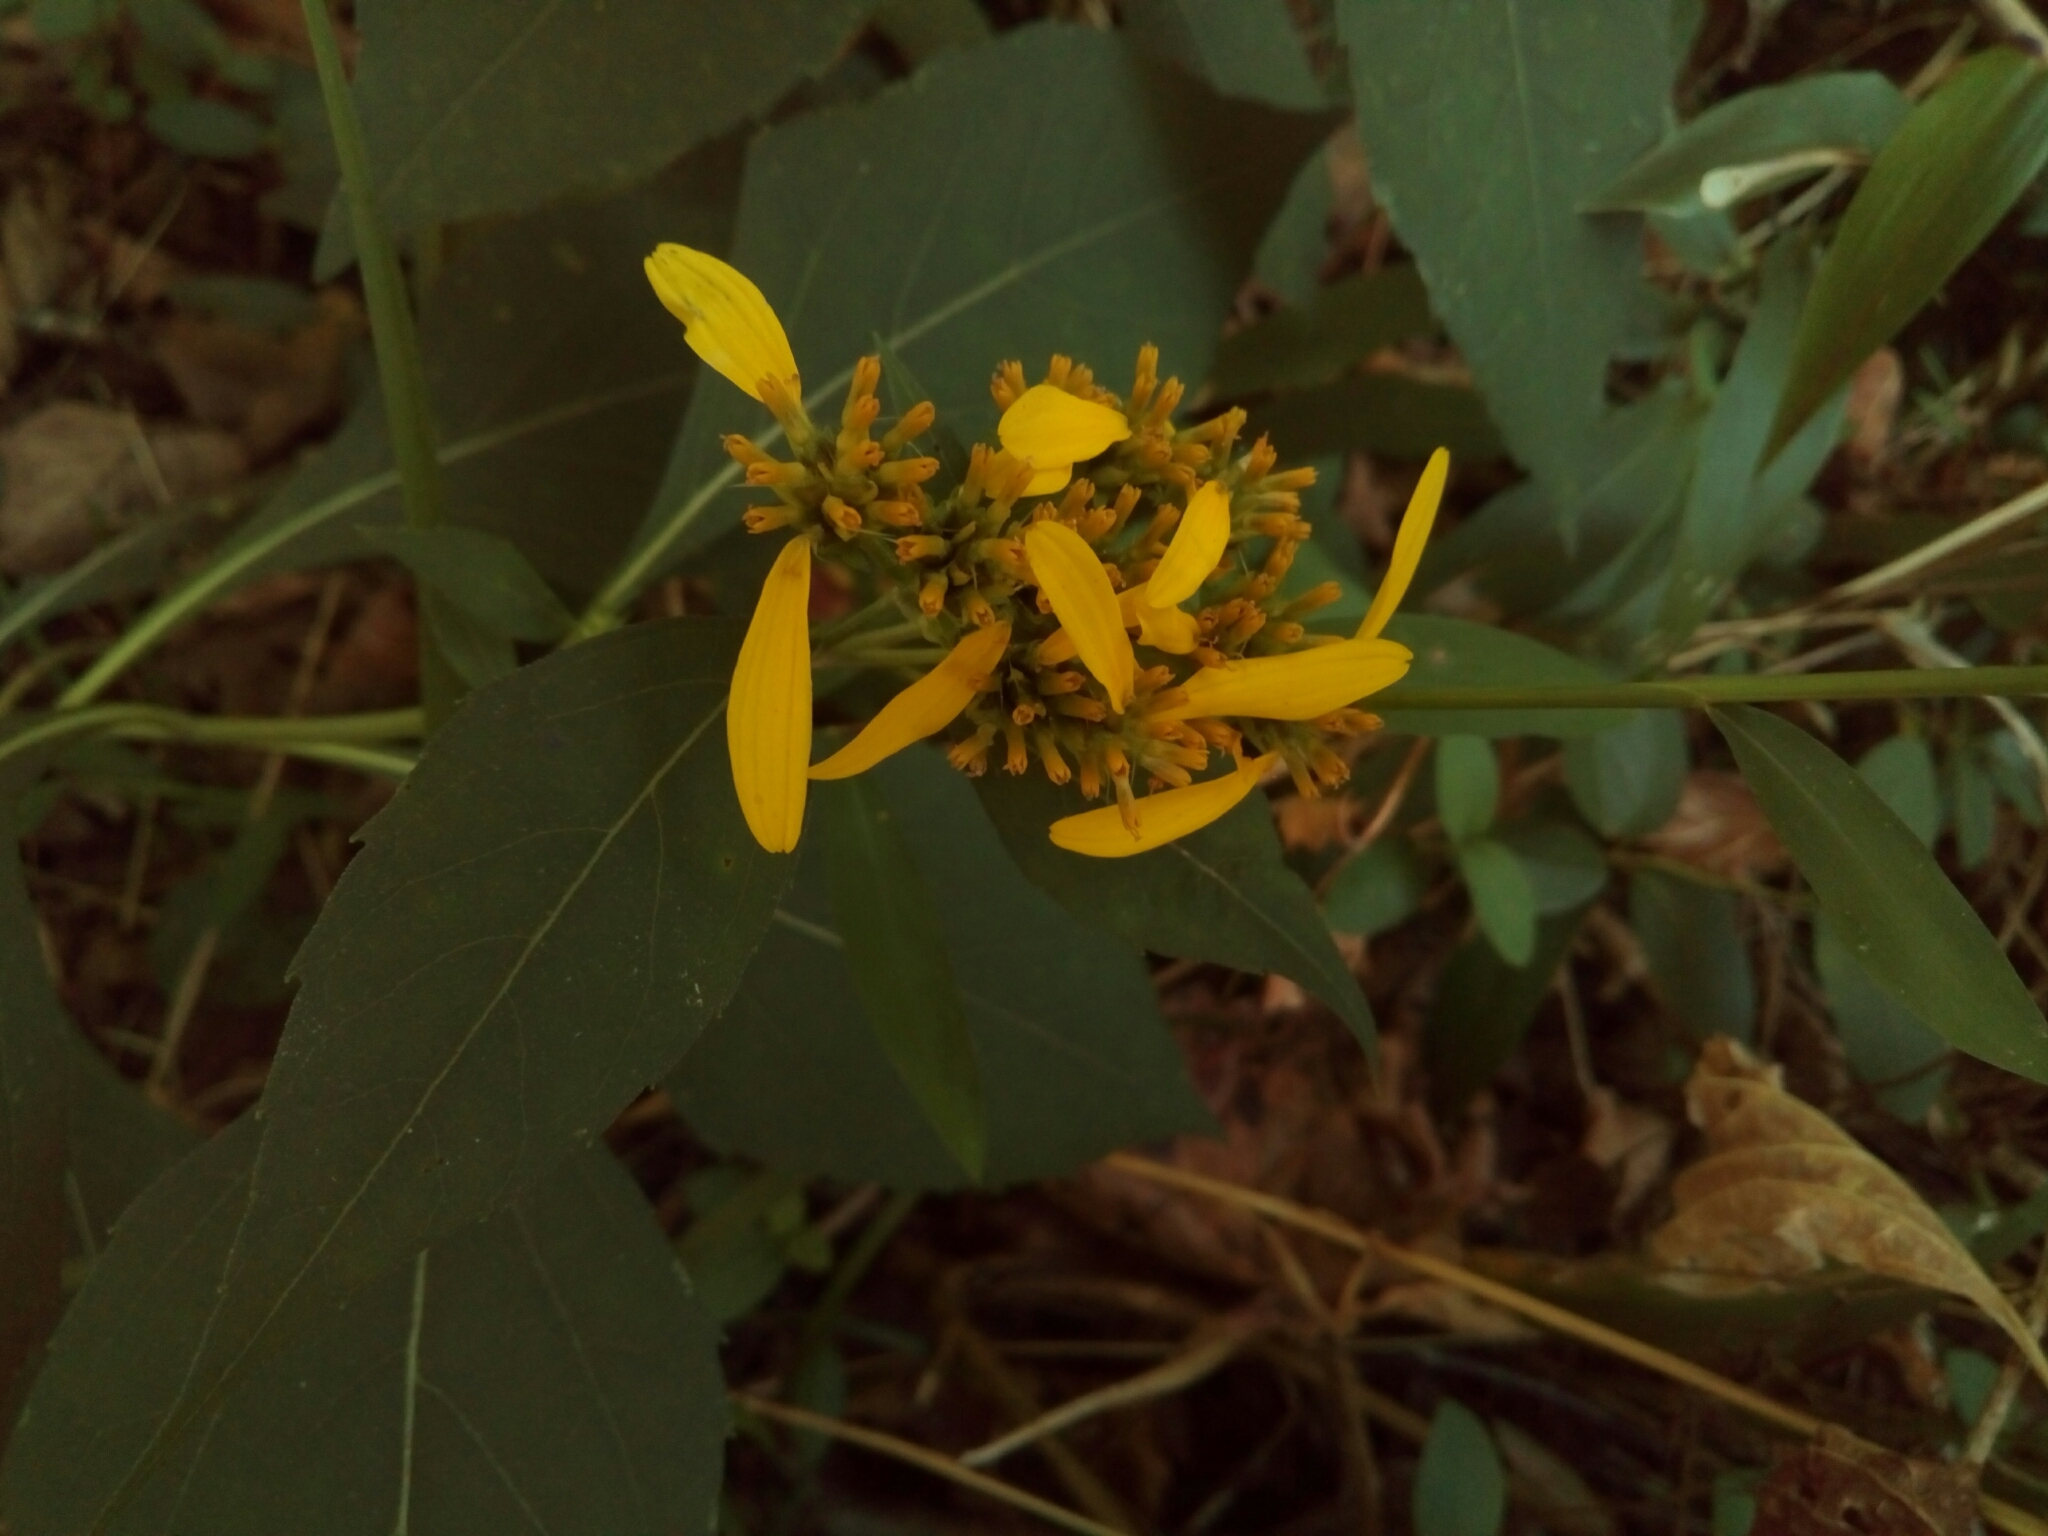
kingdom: Plantae
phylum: Tracheophyta
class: Magnoliopsida
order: Asterales
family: Asteraceae
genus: Verbesina
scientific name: Verbesina occidentalis
